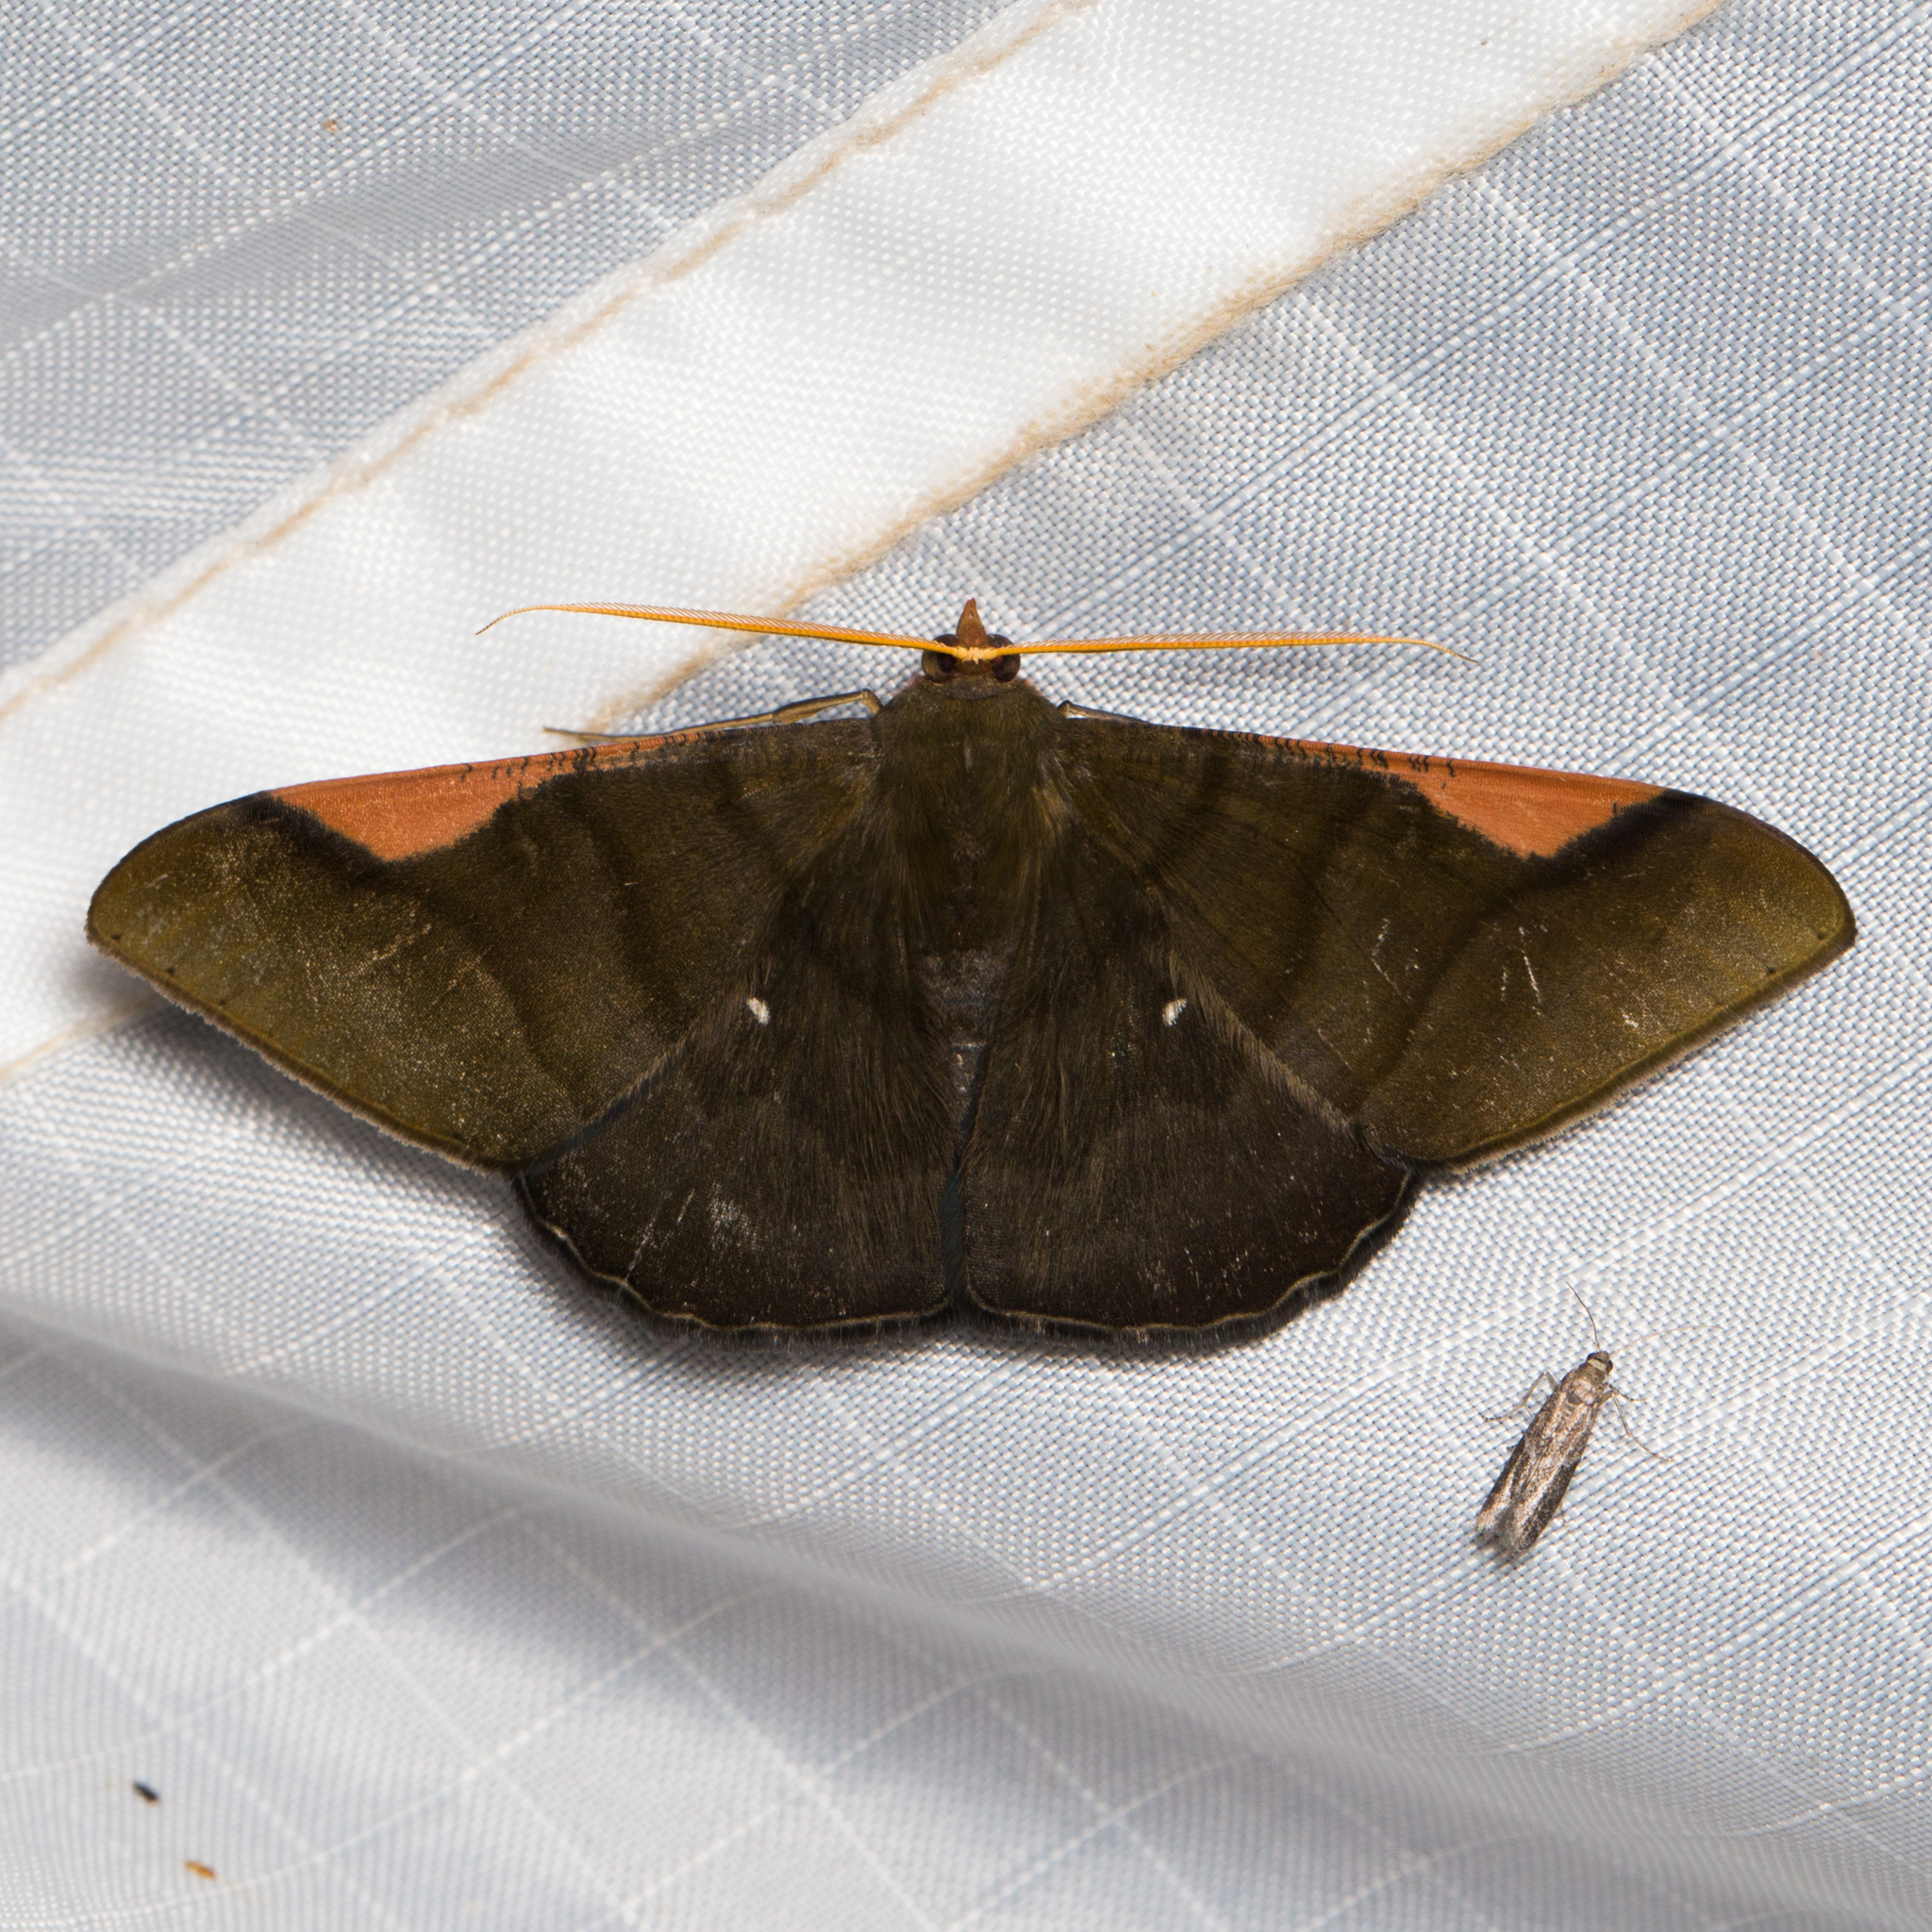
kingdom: Animalia
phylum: Arthropoda
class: Insecta
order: Lepidoptera
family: Geometridae
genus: Sphacelodes
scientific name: Sphacelodes vulneraria
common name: Looper moth
